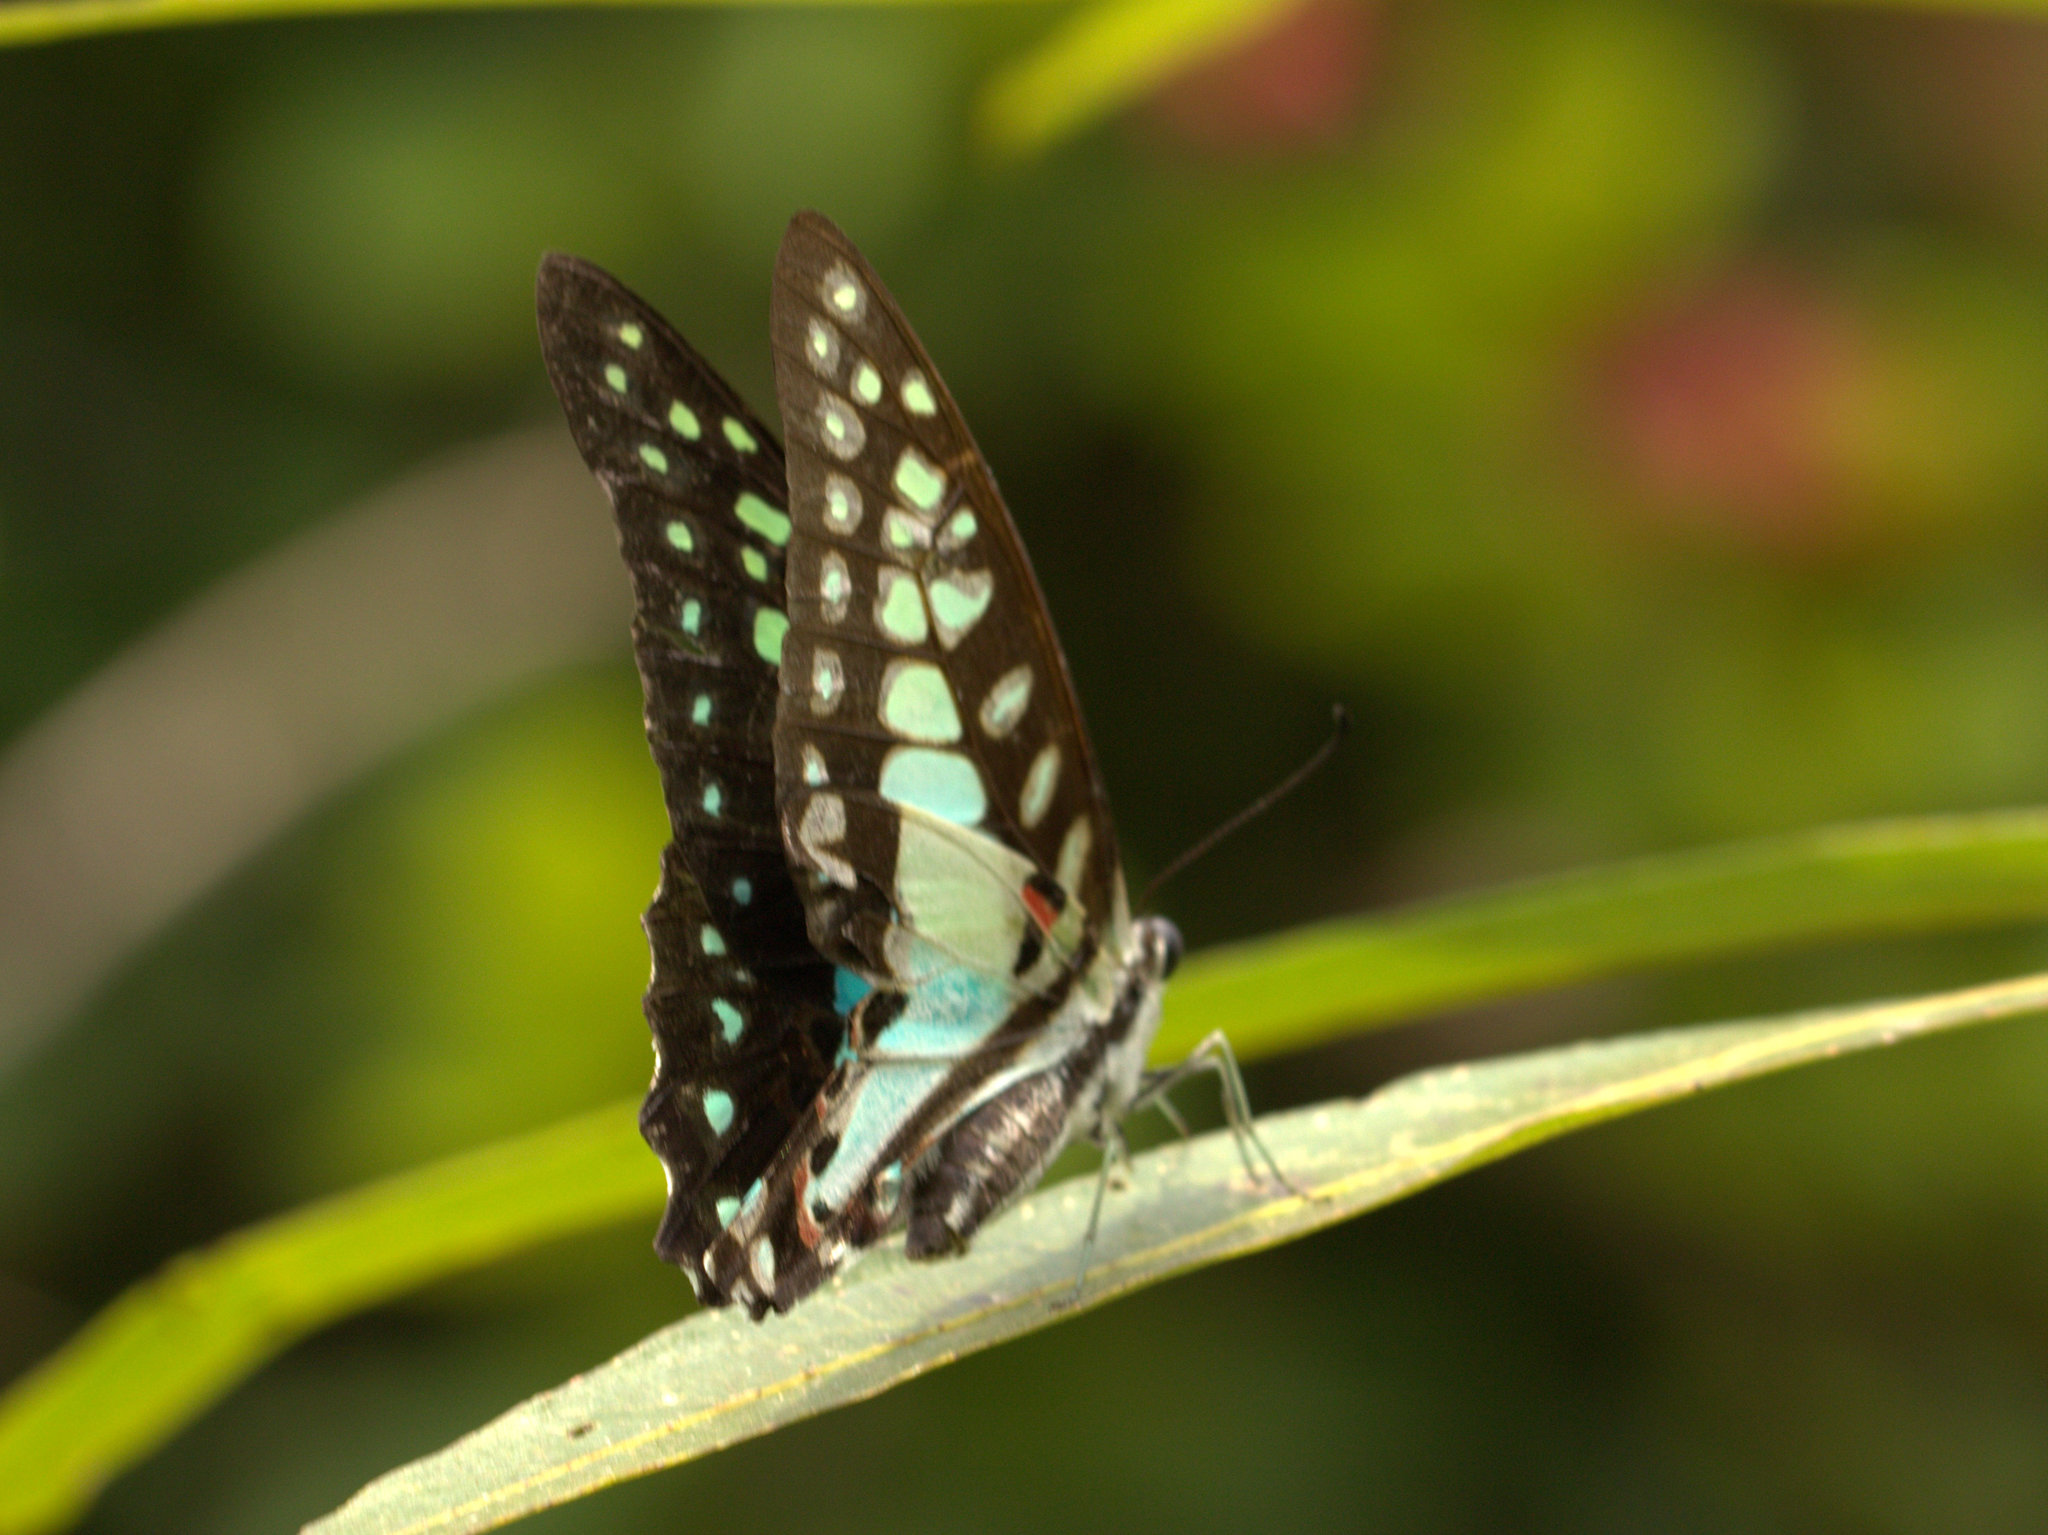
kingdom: Animalia
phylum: Arthropoda
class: Insecta
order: Lepidoptera
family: Papilionidae
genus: Graphium
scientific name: Graphium doson
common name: Common jay
